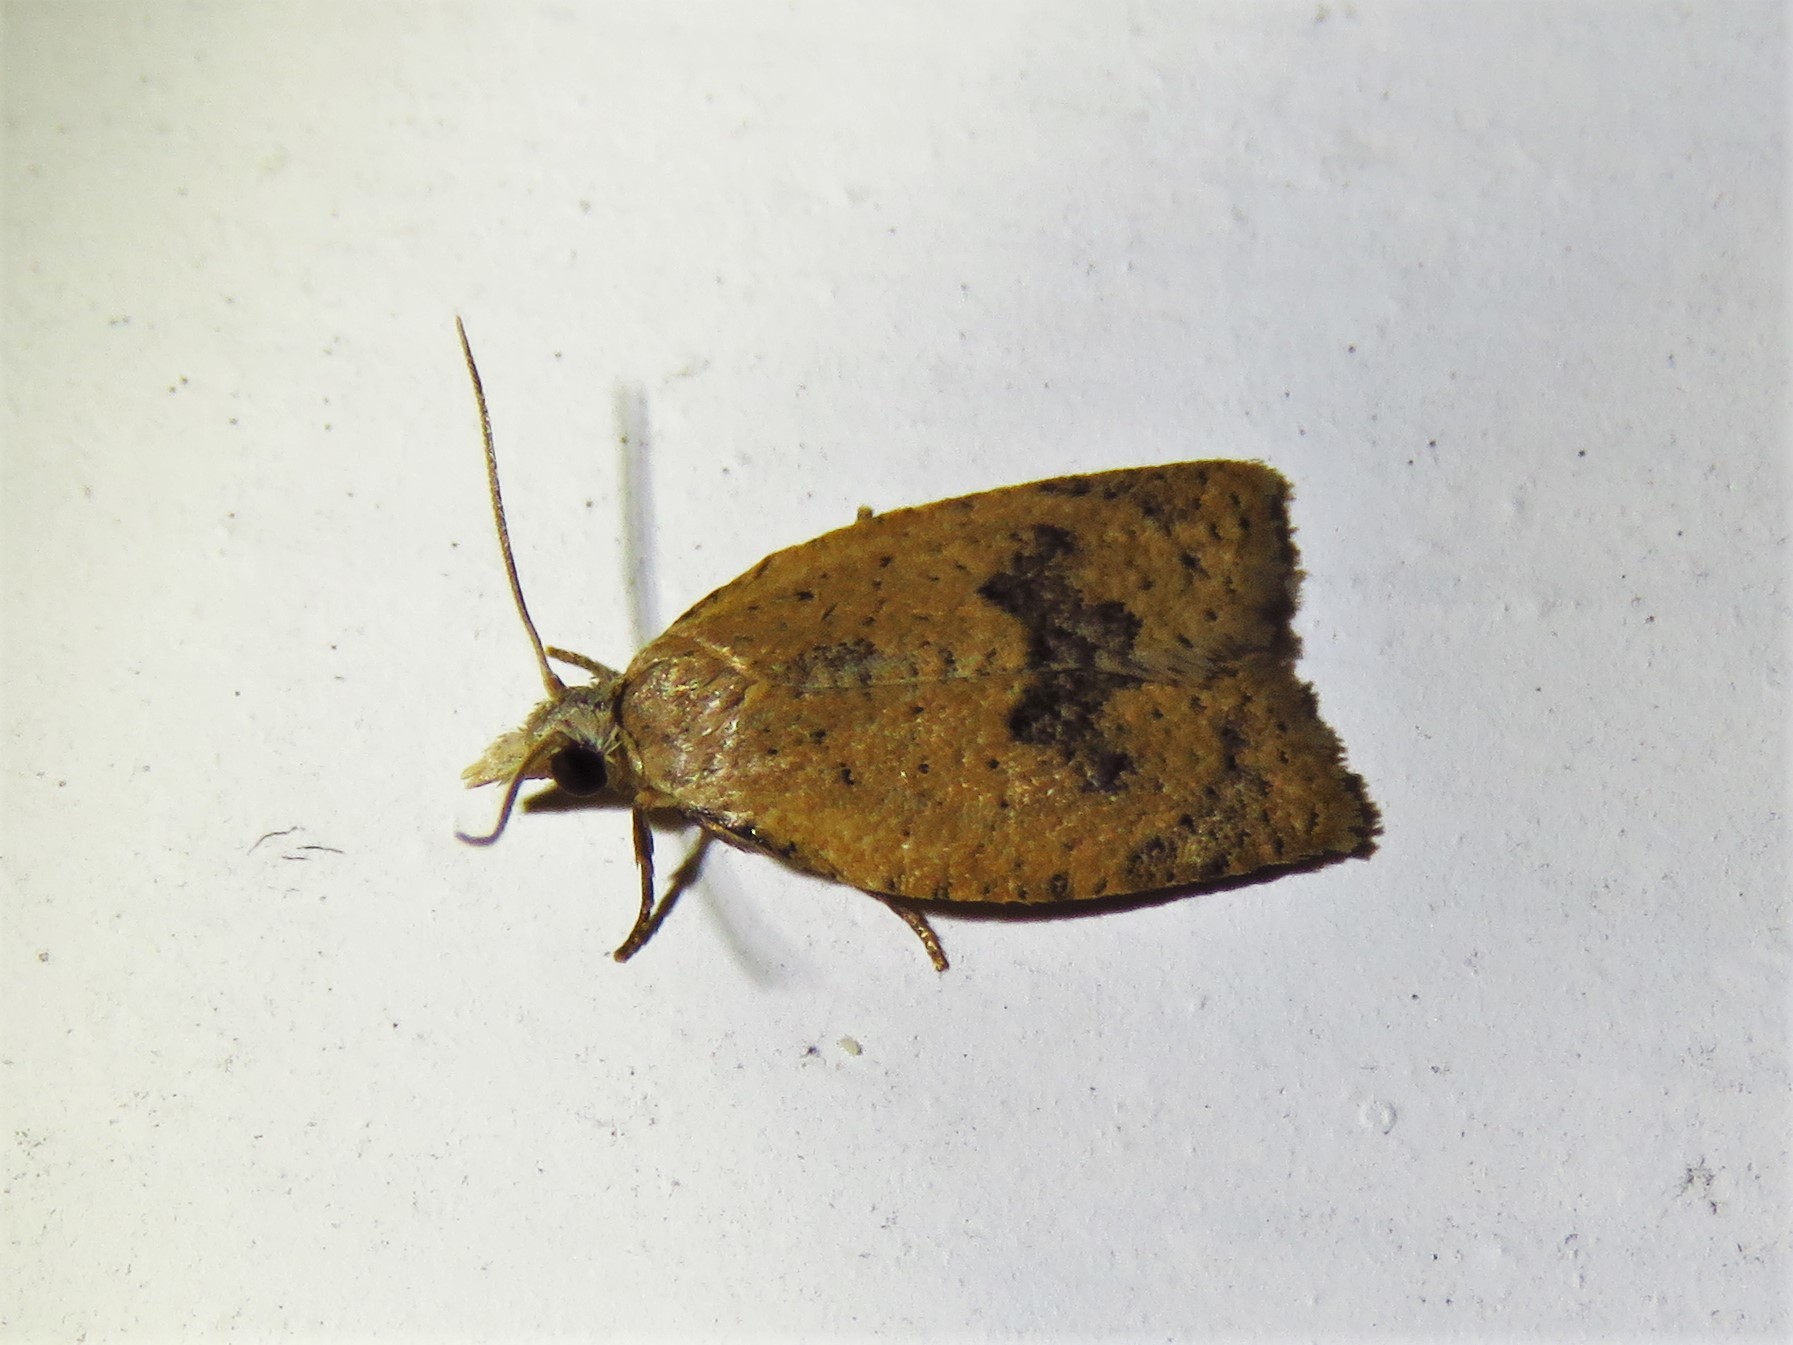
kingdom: Animalia
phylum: Arthropoda
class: Insecta
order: Lepidoptera
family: Tortricidae
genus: Sparganothoides
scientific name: Sparganothoides lentiginosana
